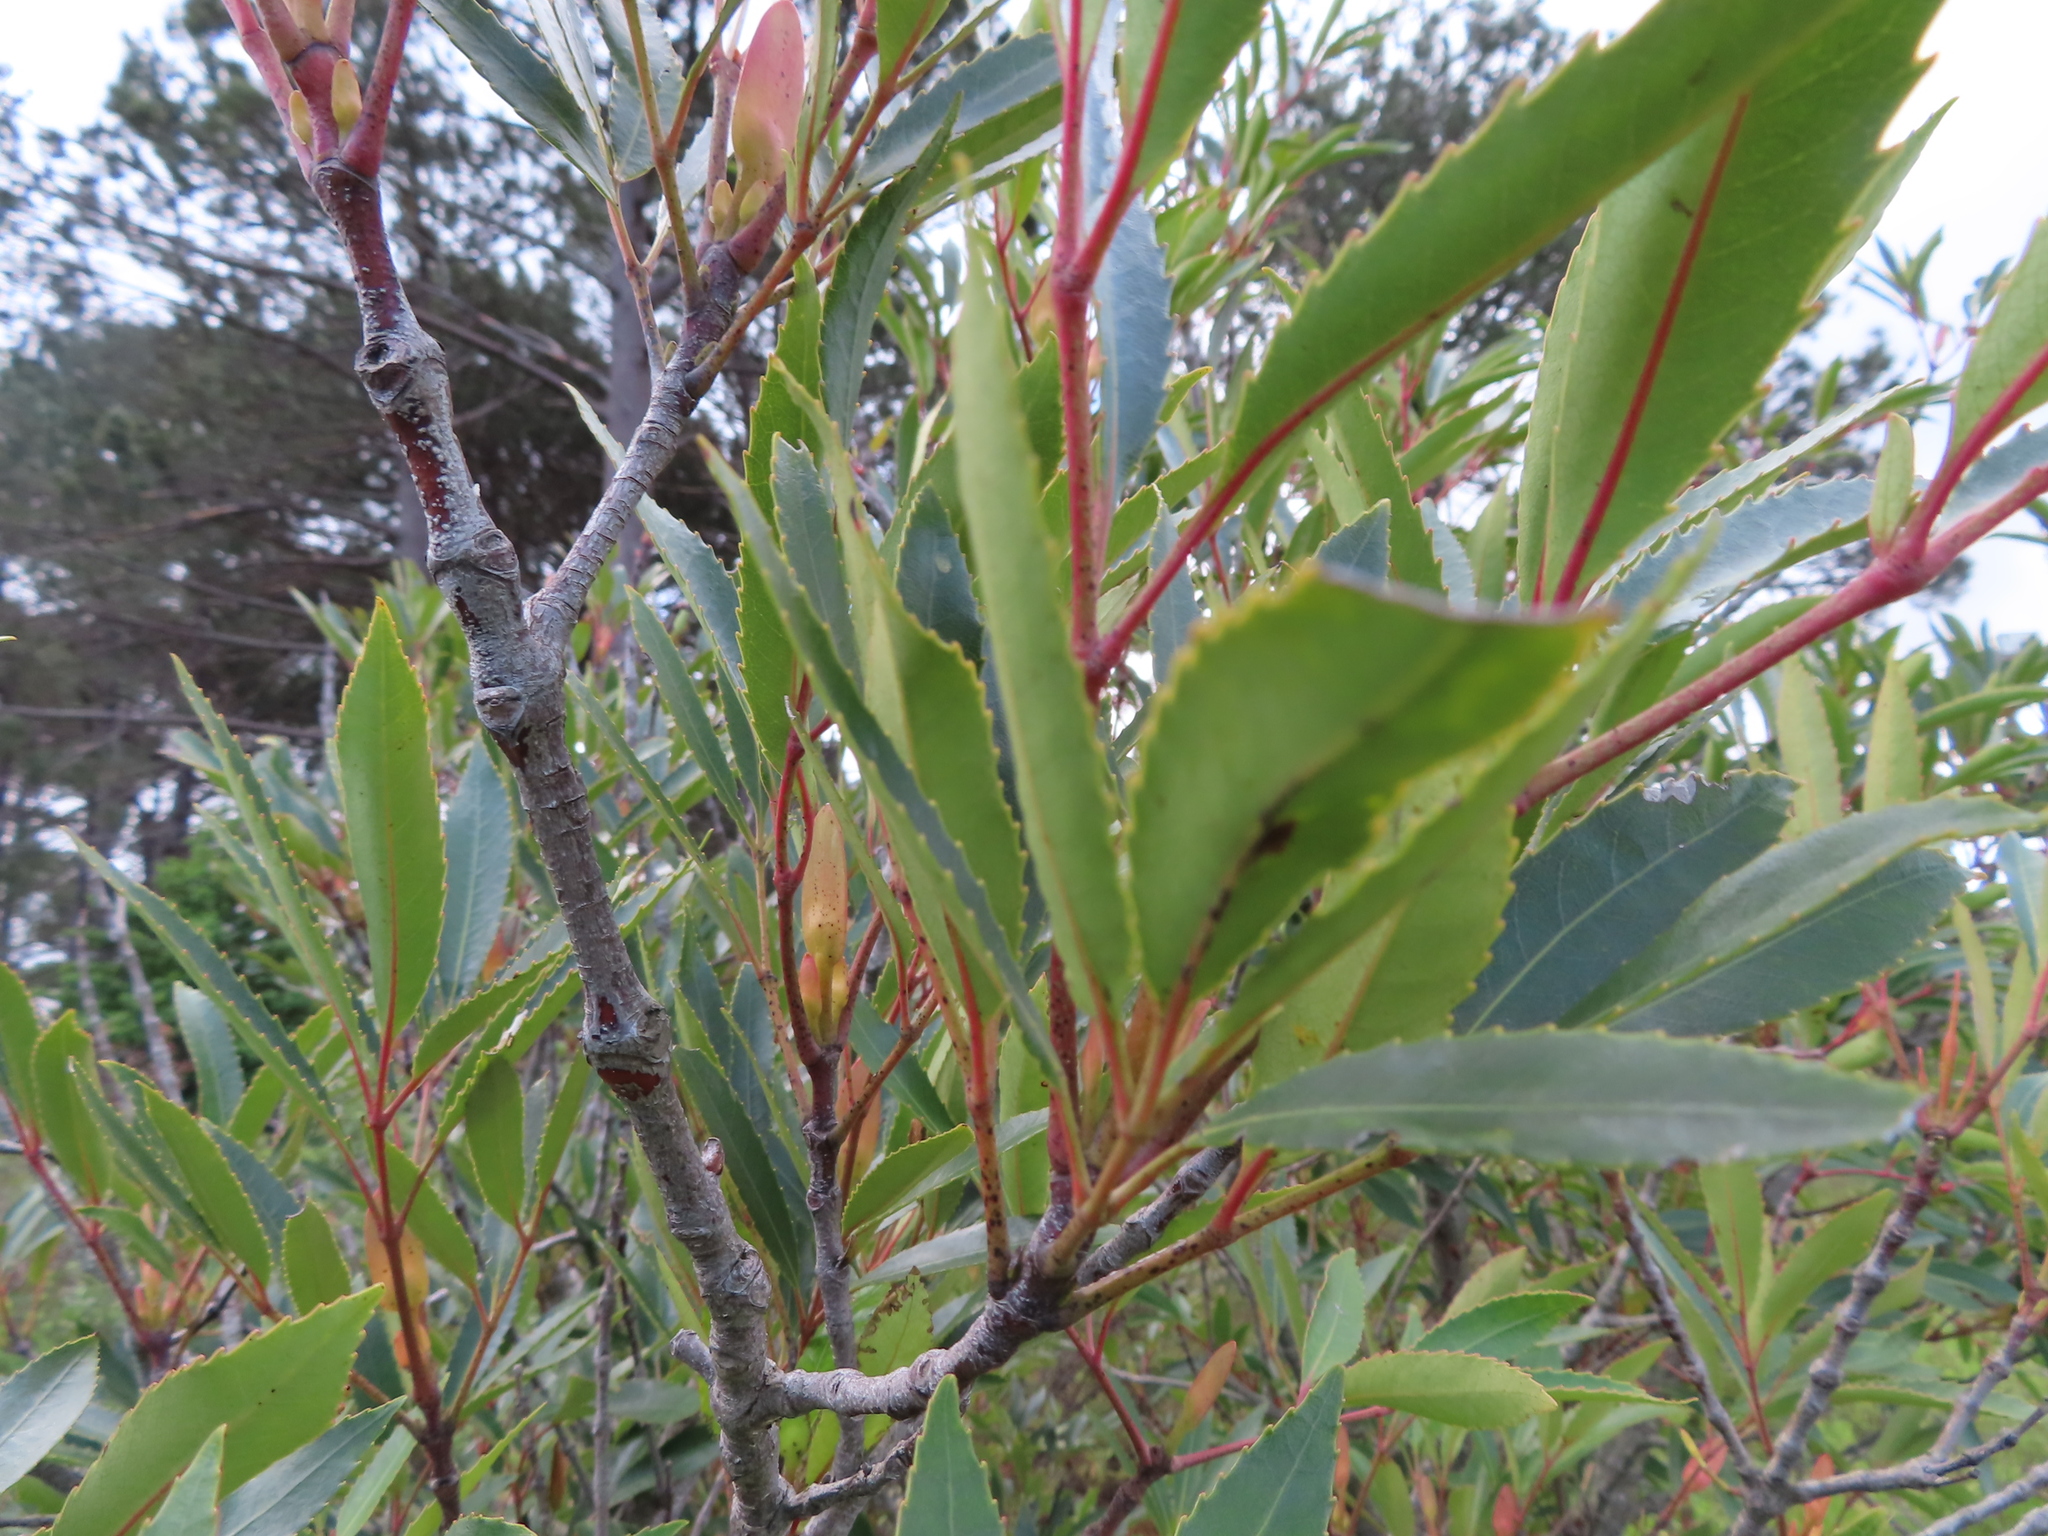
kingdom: Plantae
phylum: Tracheophyta
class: Magnoliopsida
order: Oxalidales
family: Cunoniaceae
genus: Cunonia
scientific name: Cunonia capensis
